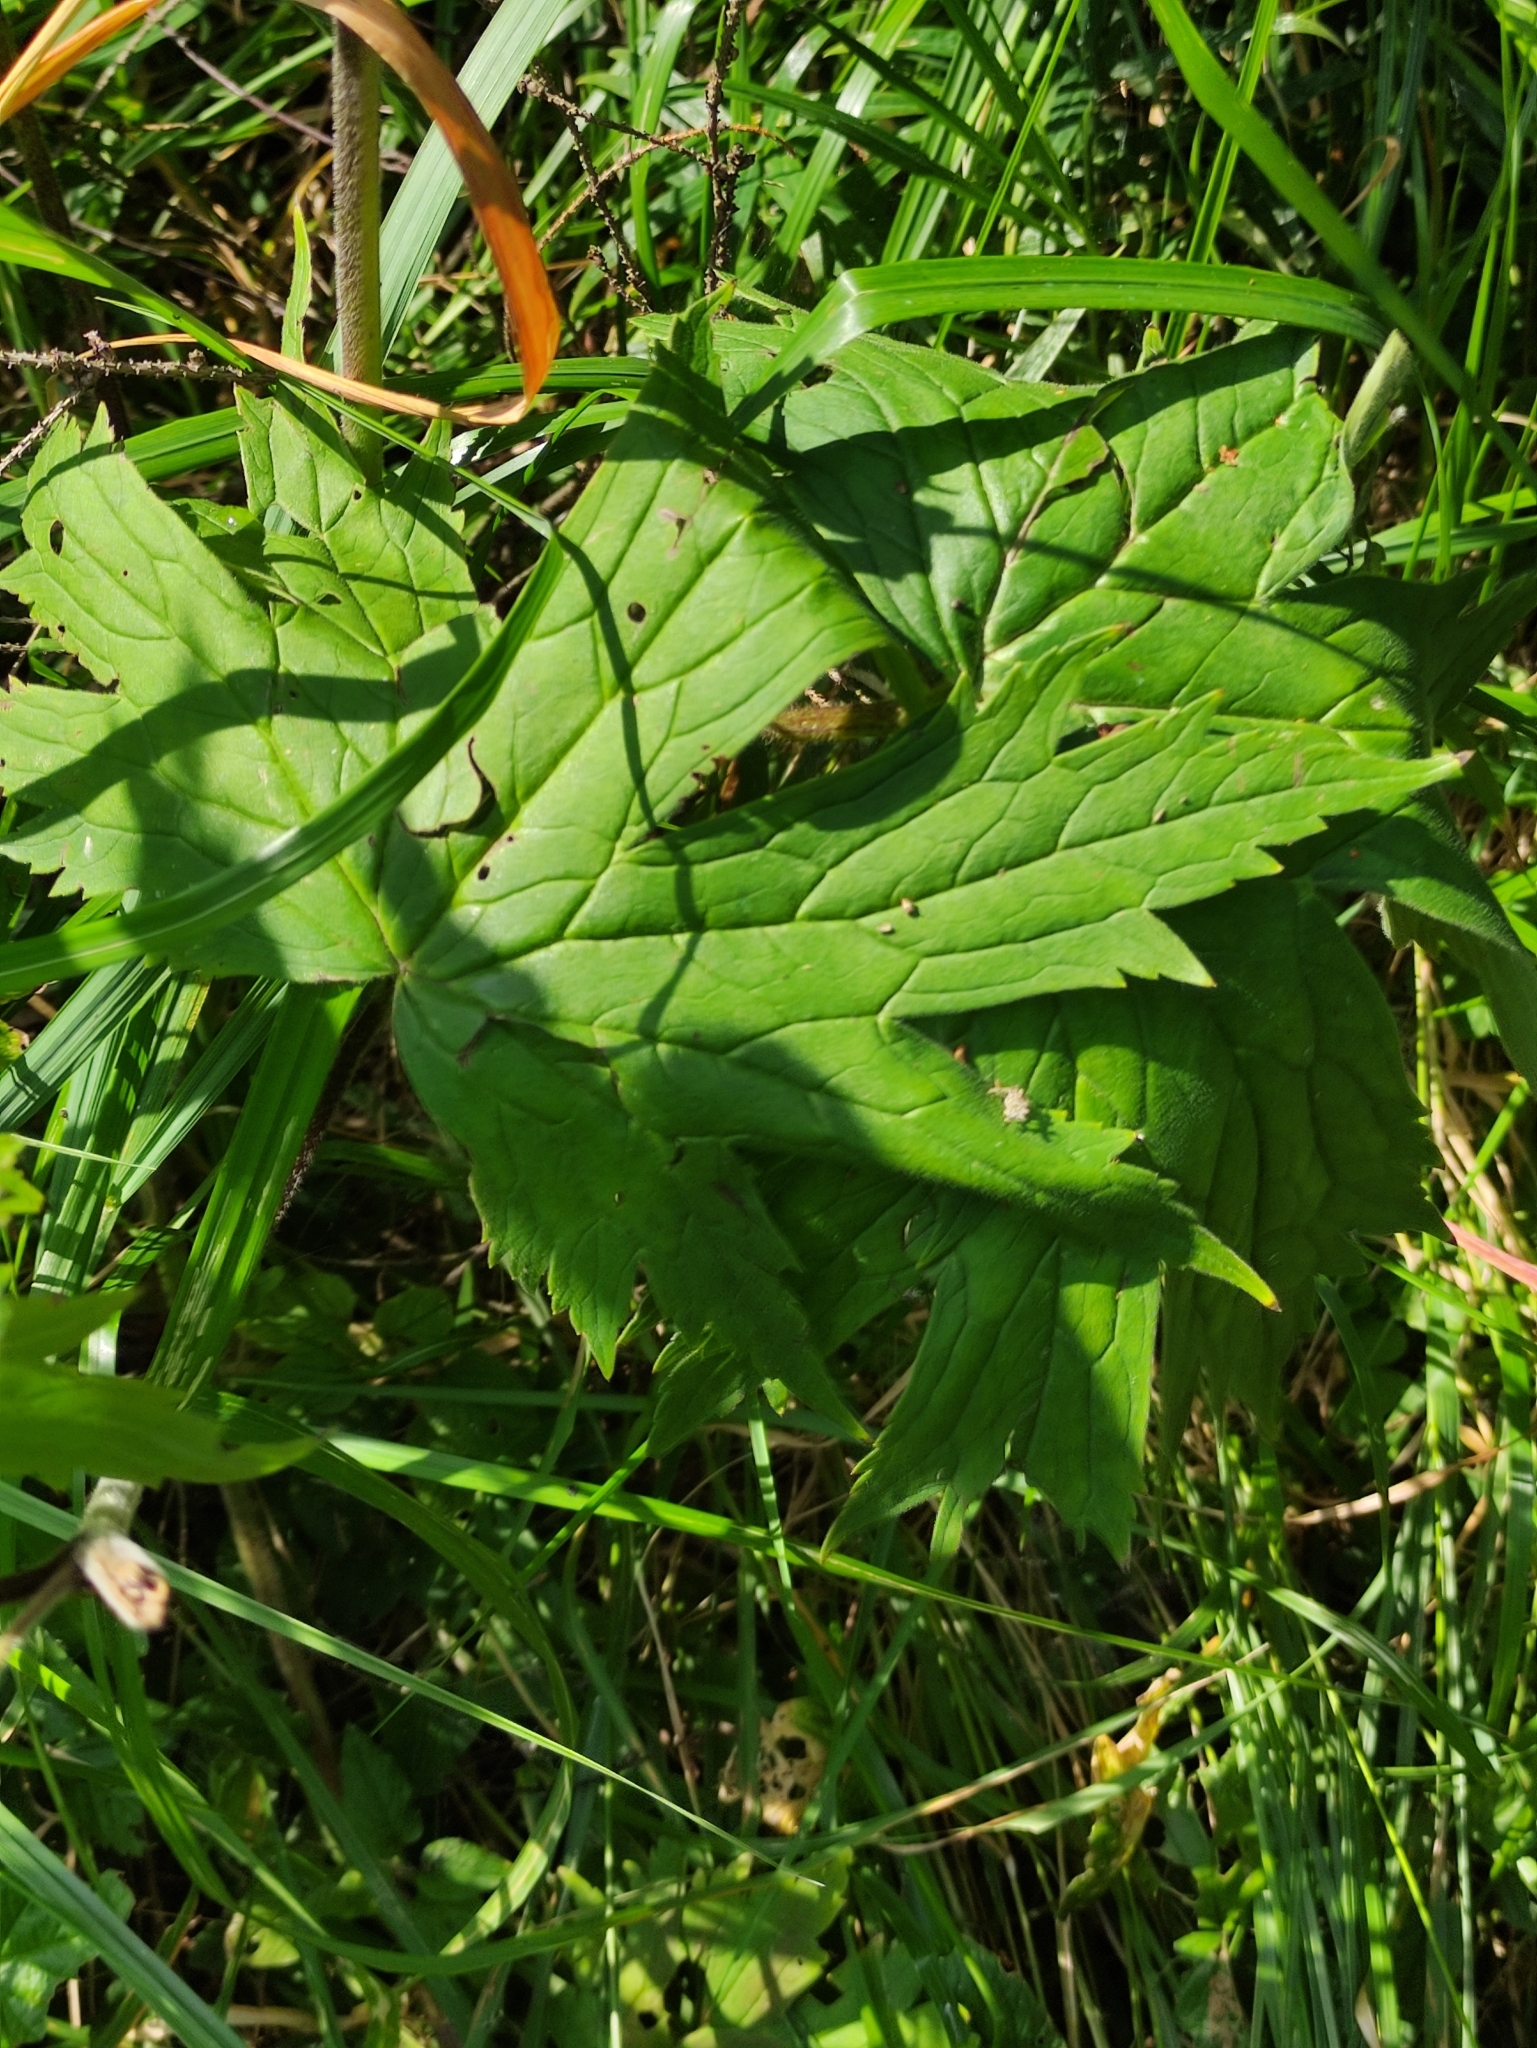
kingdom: Plantae
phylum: Tracheophyta
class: Magnoliopsida
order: Ranunculales
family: Ranunculaceae
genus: Aconitum
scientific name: Aconitum septentrionale
